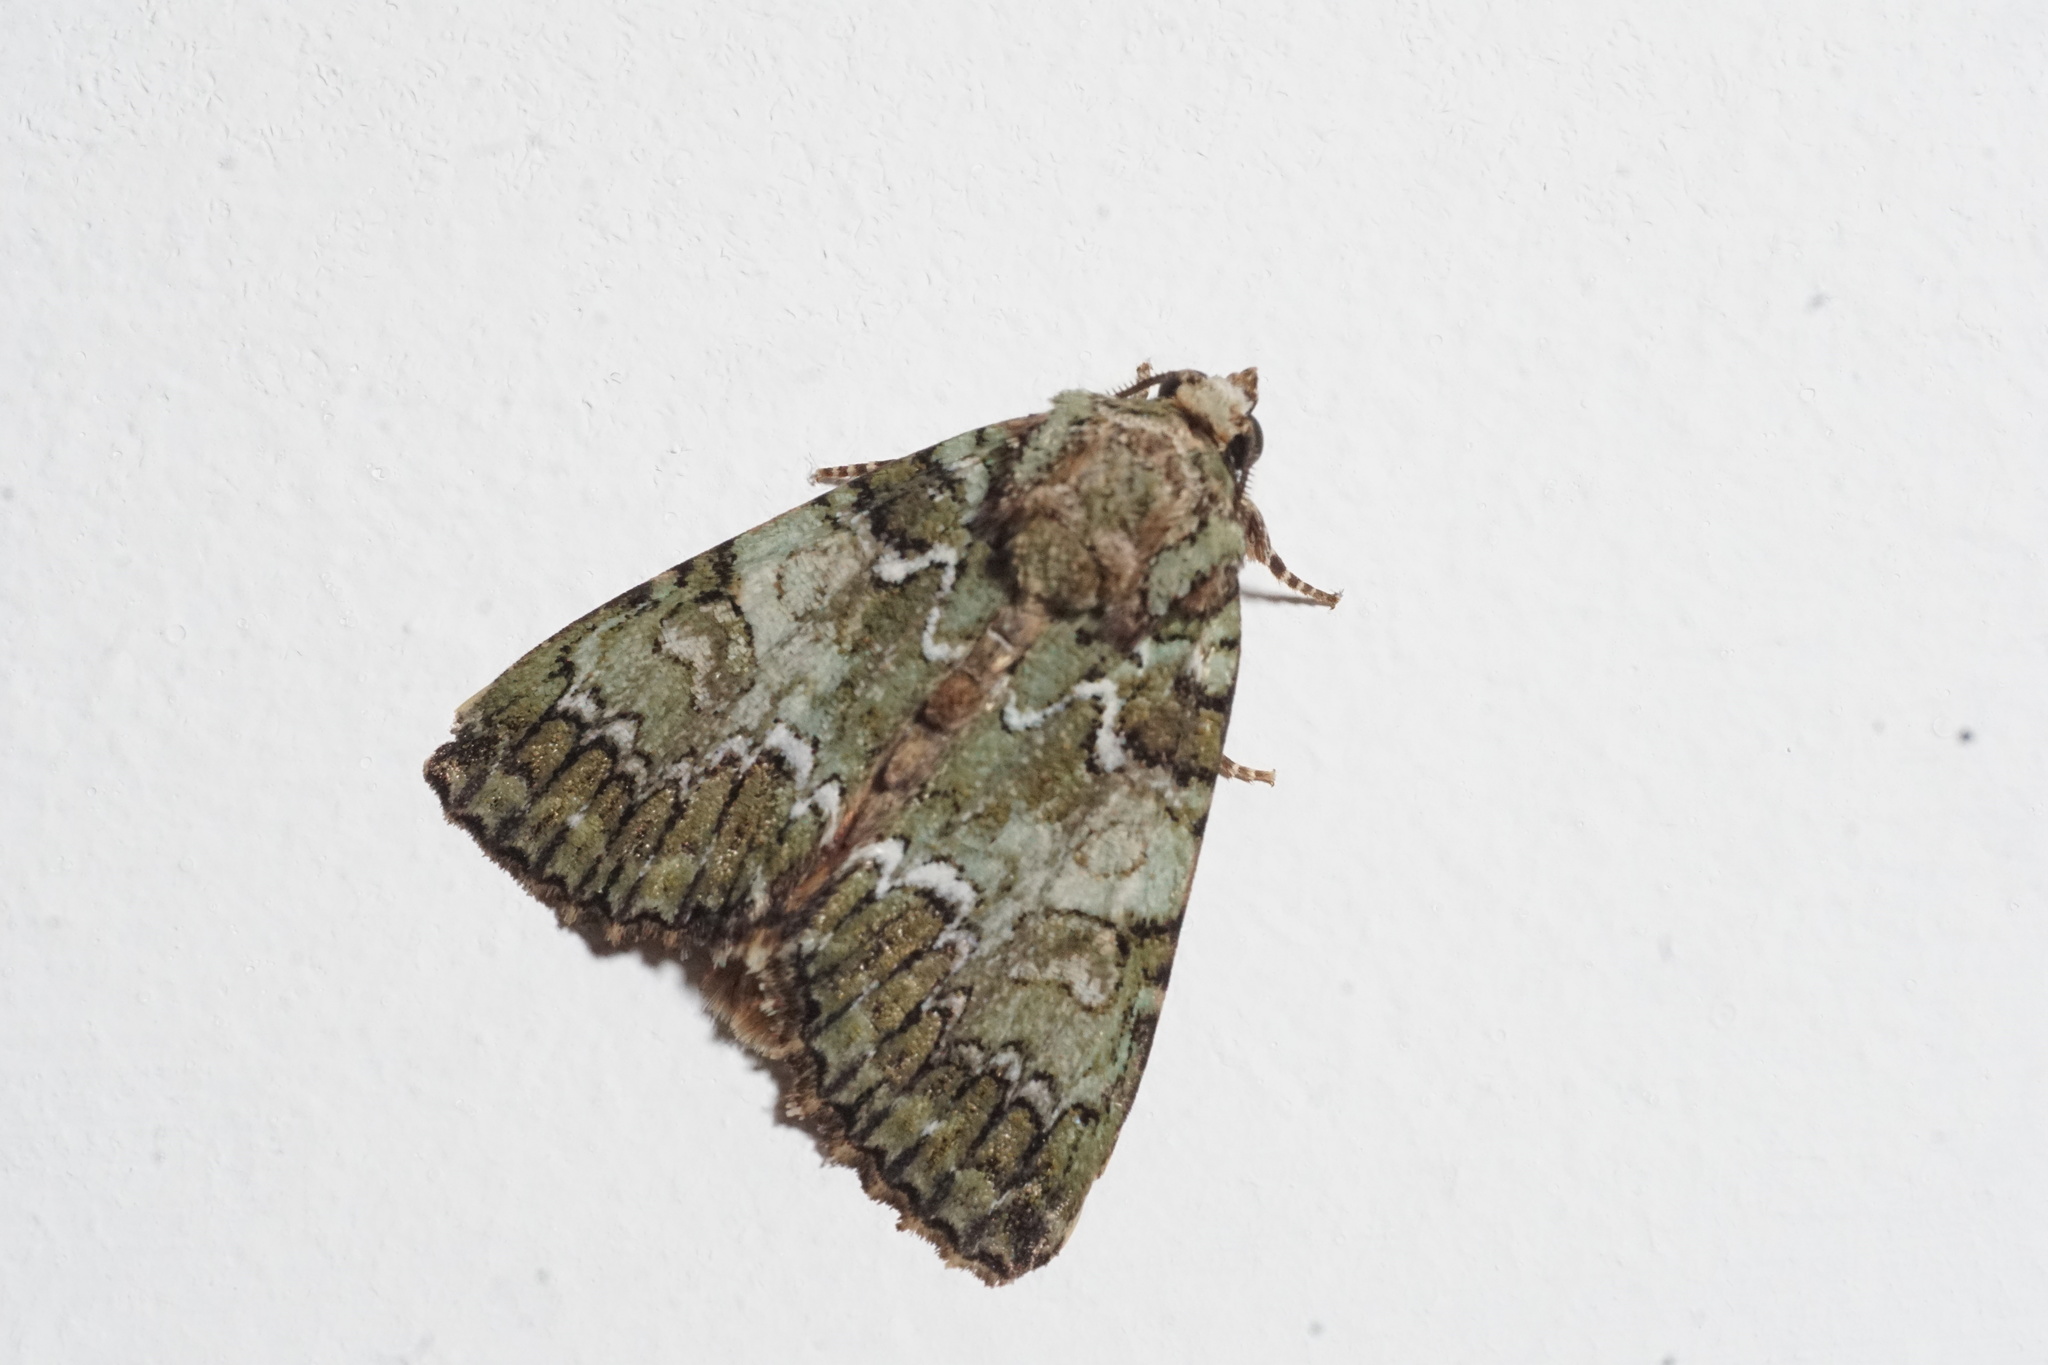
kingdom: Animalia
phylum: Arthropoda
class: Insecta
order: Lepidoptera
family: Noctuidae
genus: Polyphaenis
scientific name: Polyphaenis sericata
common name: Guernsey underwing
